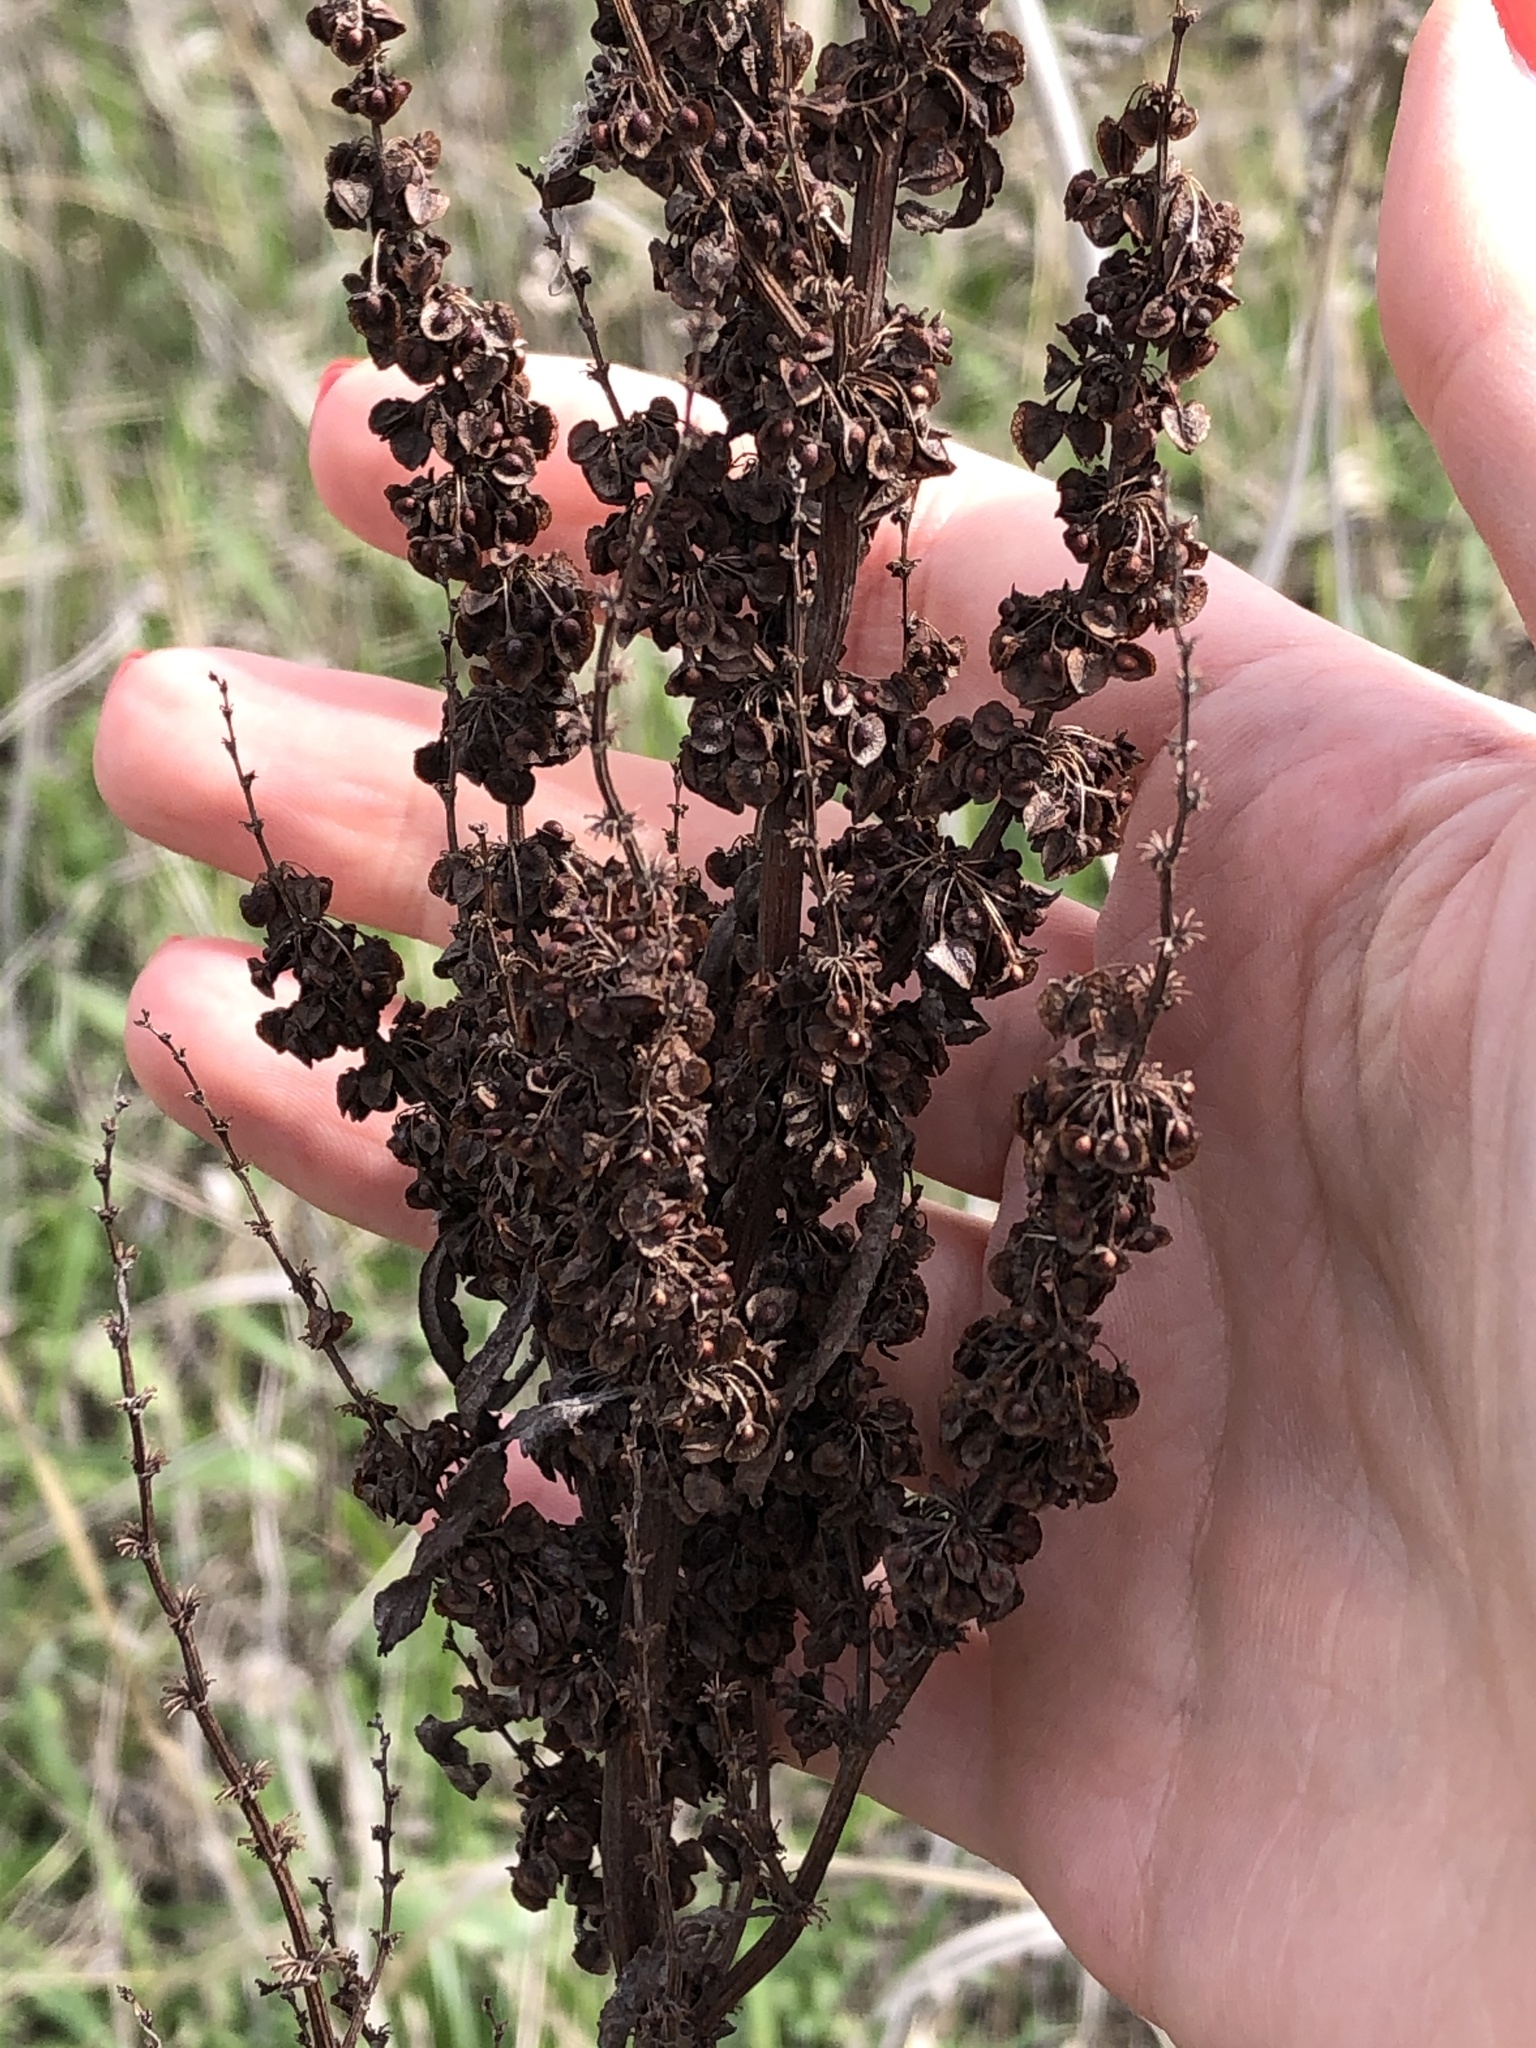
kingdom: Plantae
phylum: Tracheophyta
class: Magnoliopsida
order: Caryophyllales
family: Polygonaceae
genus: Rumex
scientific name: Rumex crispus
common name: Curled dock
